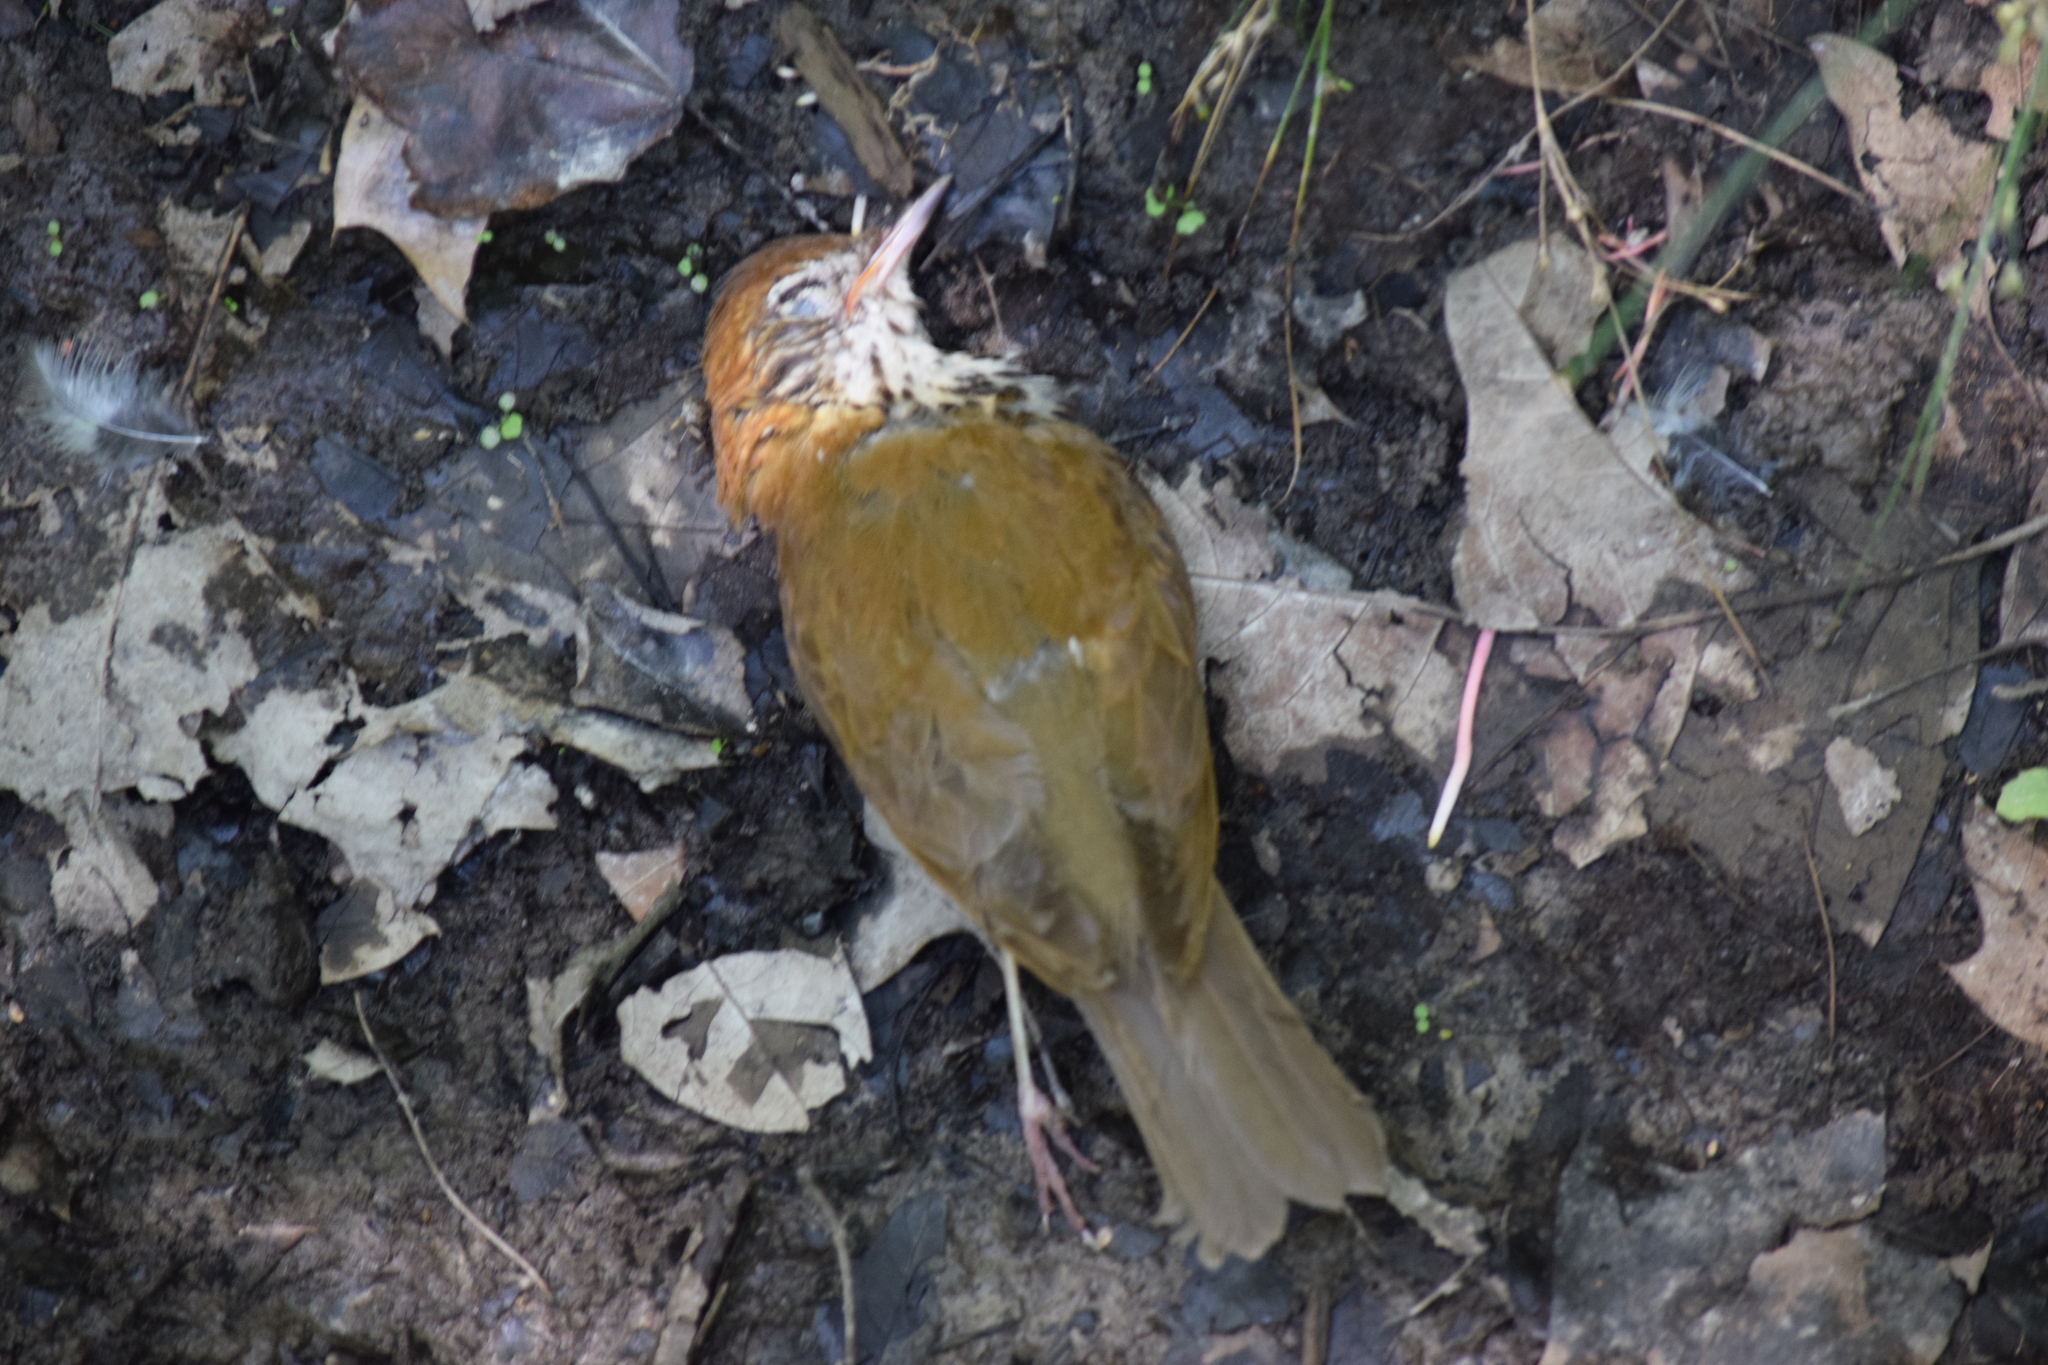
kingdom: Animalia
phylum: Chordata
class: Aves
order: Passeriformes
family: Turdidae
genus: Hylocichla
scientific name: Hylocichla mustelina
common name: Wood thrush
